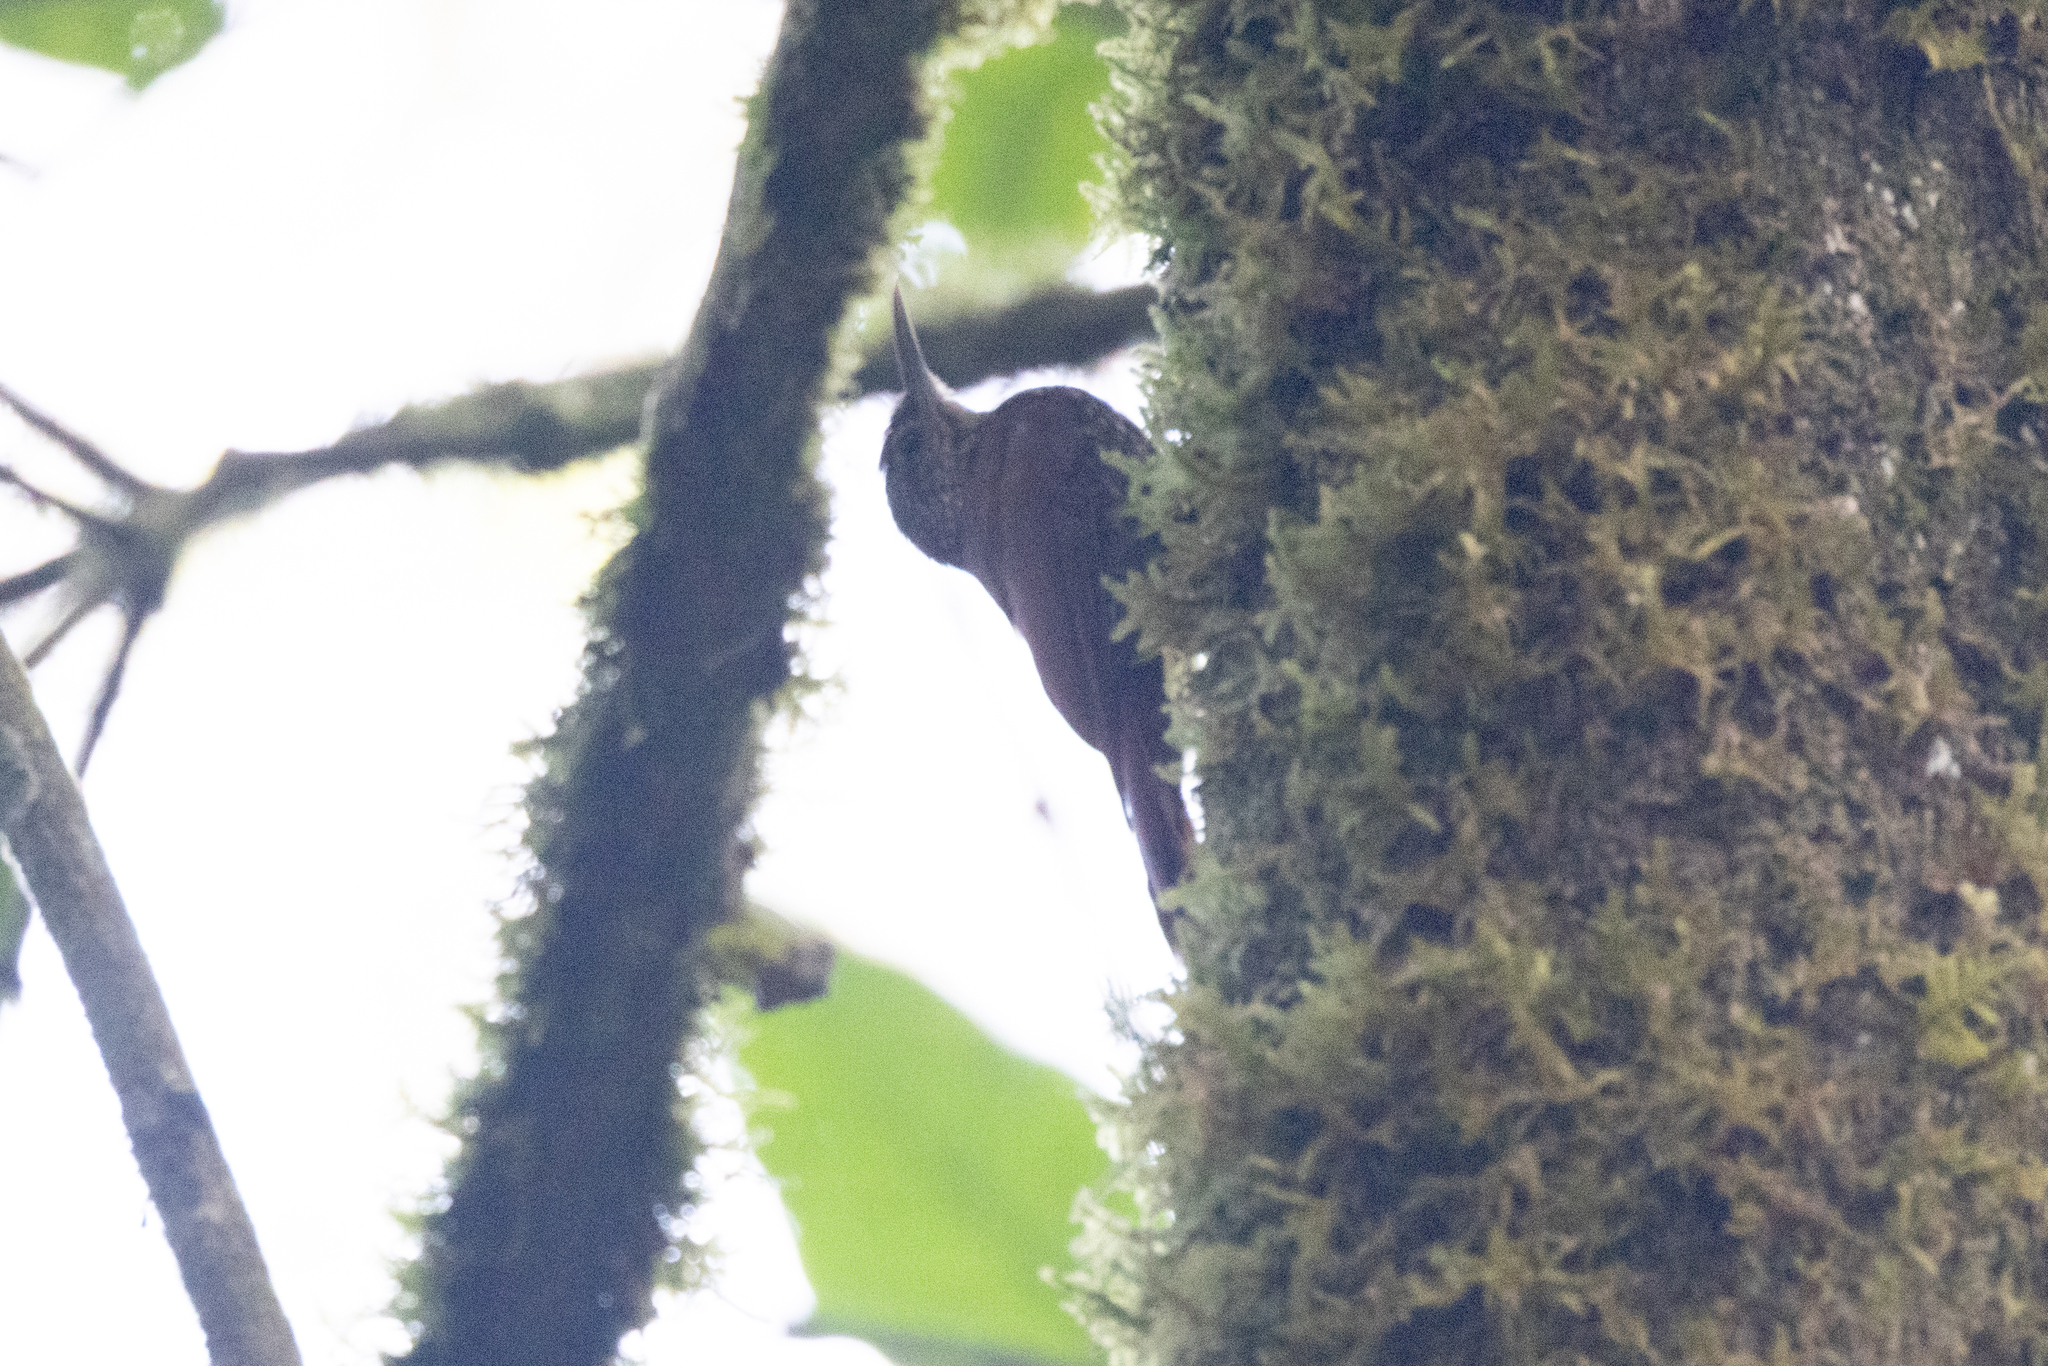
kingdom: Animalia
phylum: Chordata
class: Aves
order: Passeriformes
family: Furnariidae
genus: Lepidocolaptes
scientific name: Lepidocolaptes affinis
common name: Spot-crowned woodcreeper
